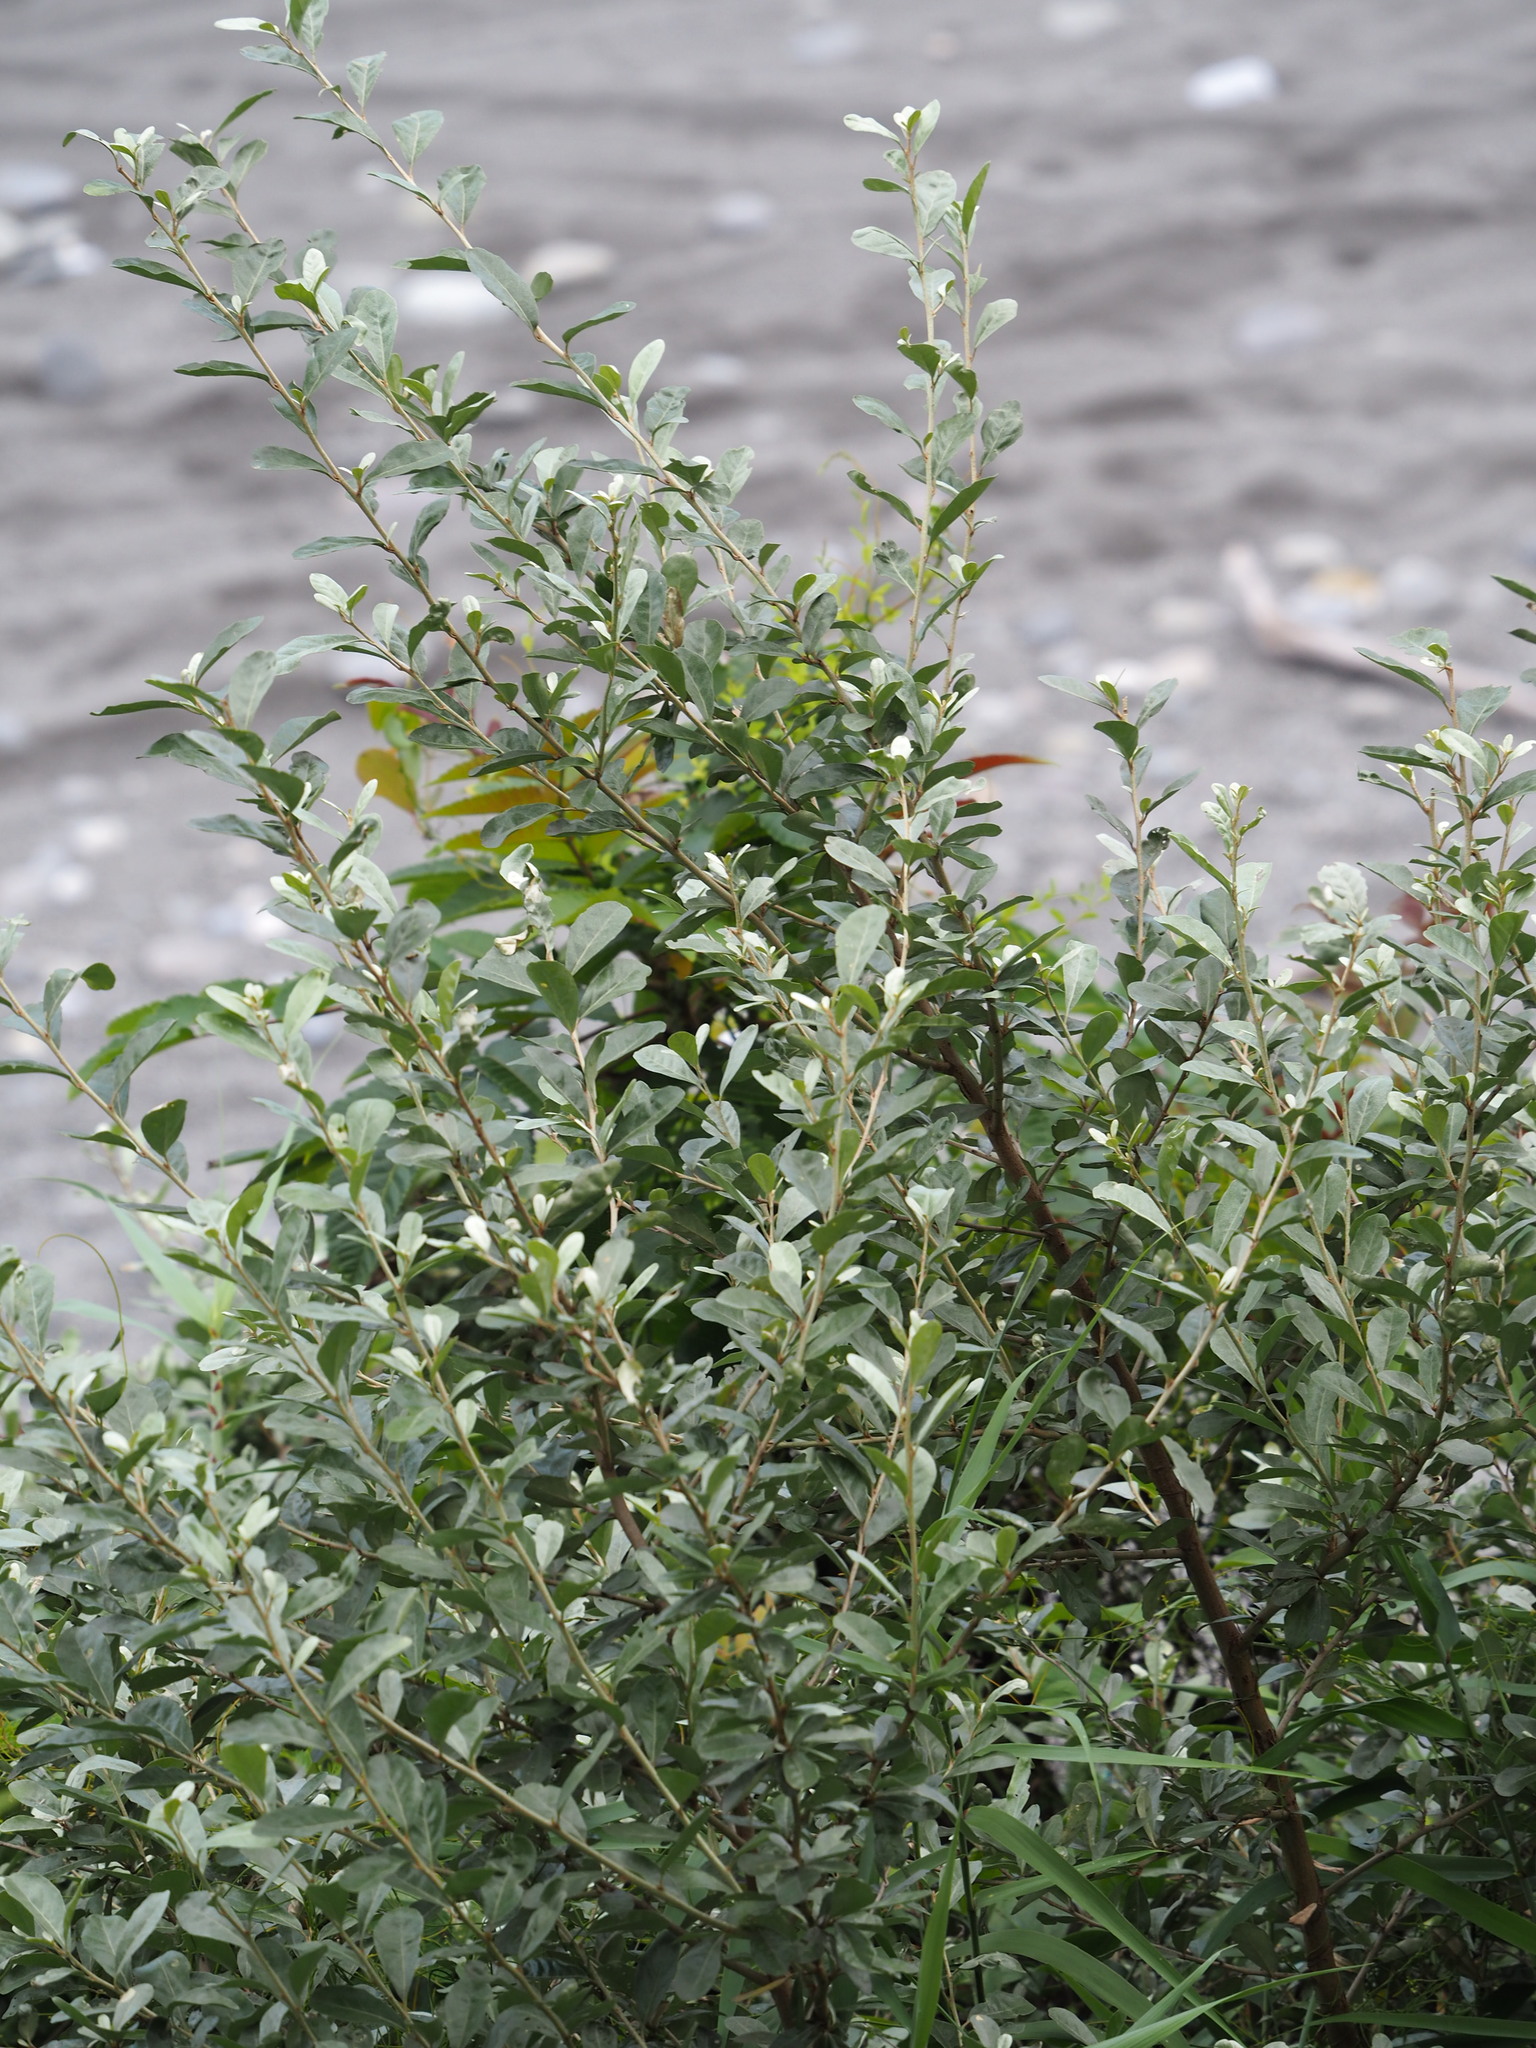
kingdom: Plantae
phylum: Tracheophyta
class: Magnoliopsida
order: Rosales
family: Elaeagnaceae
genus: Elaeagnus
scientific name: Elaeagnus oldhamii
